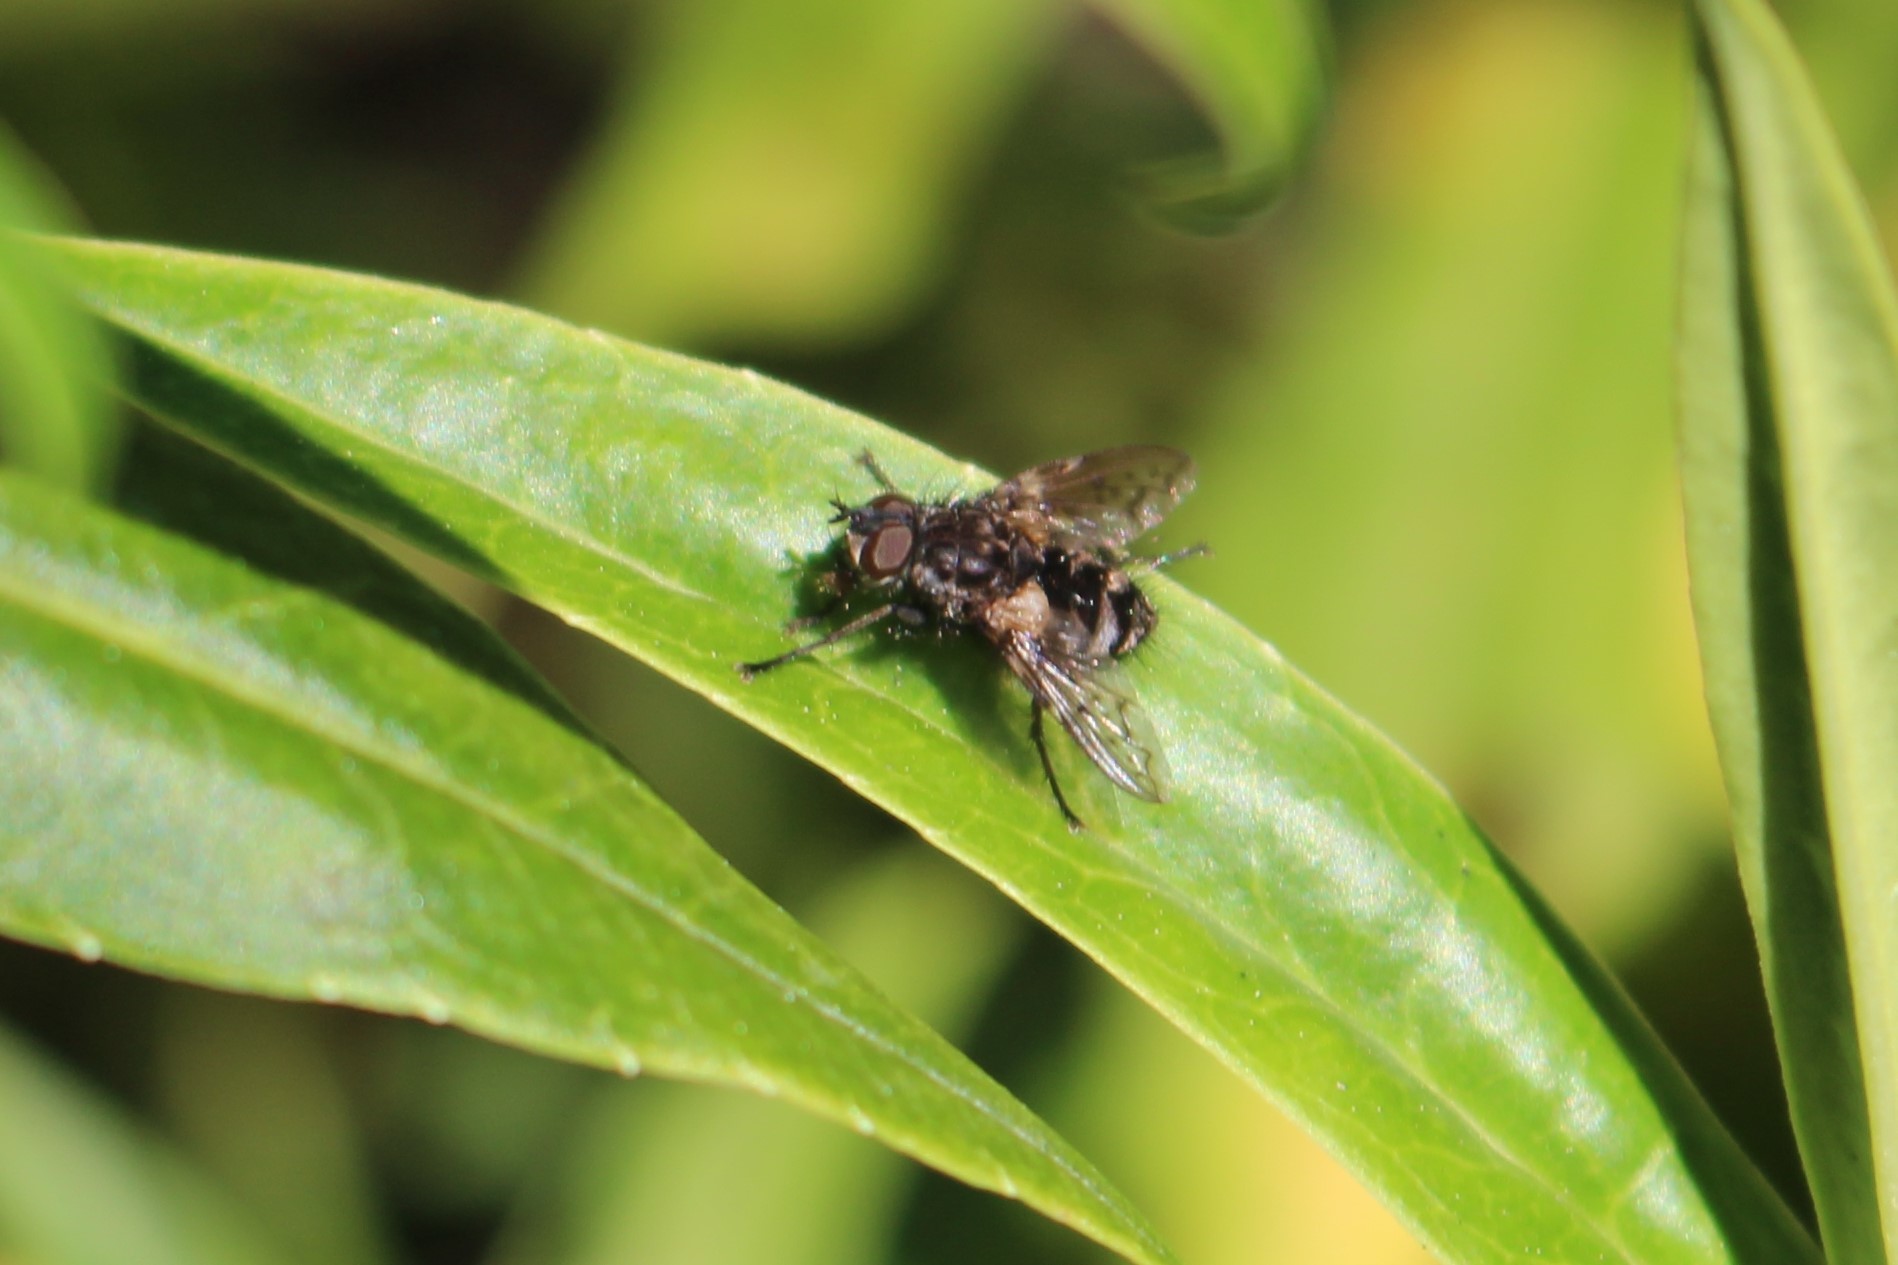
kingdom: Animalia
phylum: Arthropoda
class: Insecta
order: Diptera
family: Tachinidae
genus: Mallochomacquartia
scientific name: Mallochomacquartia vexata
